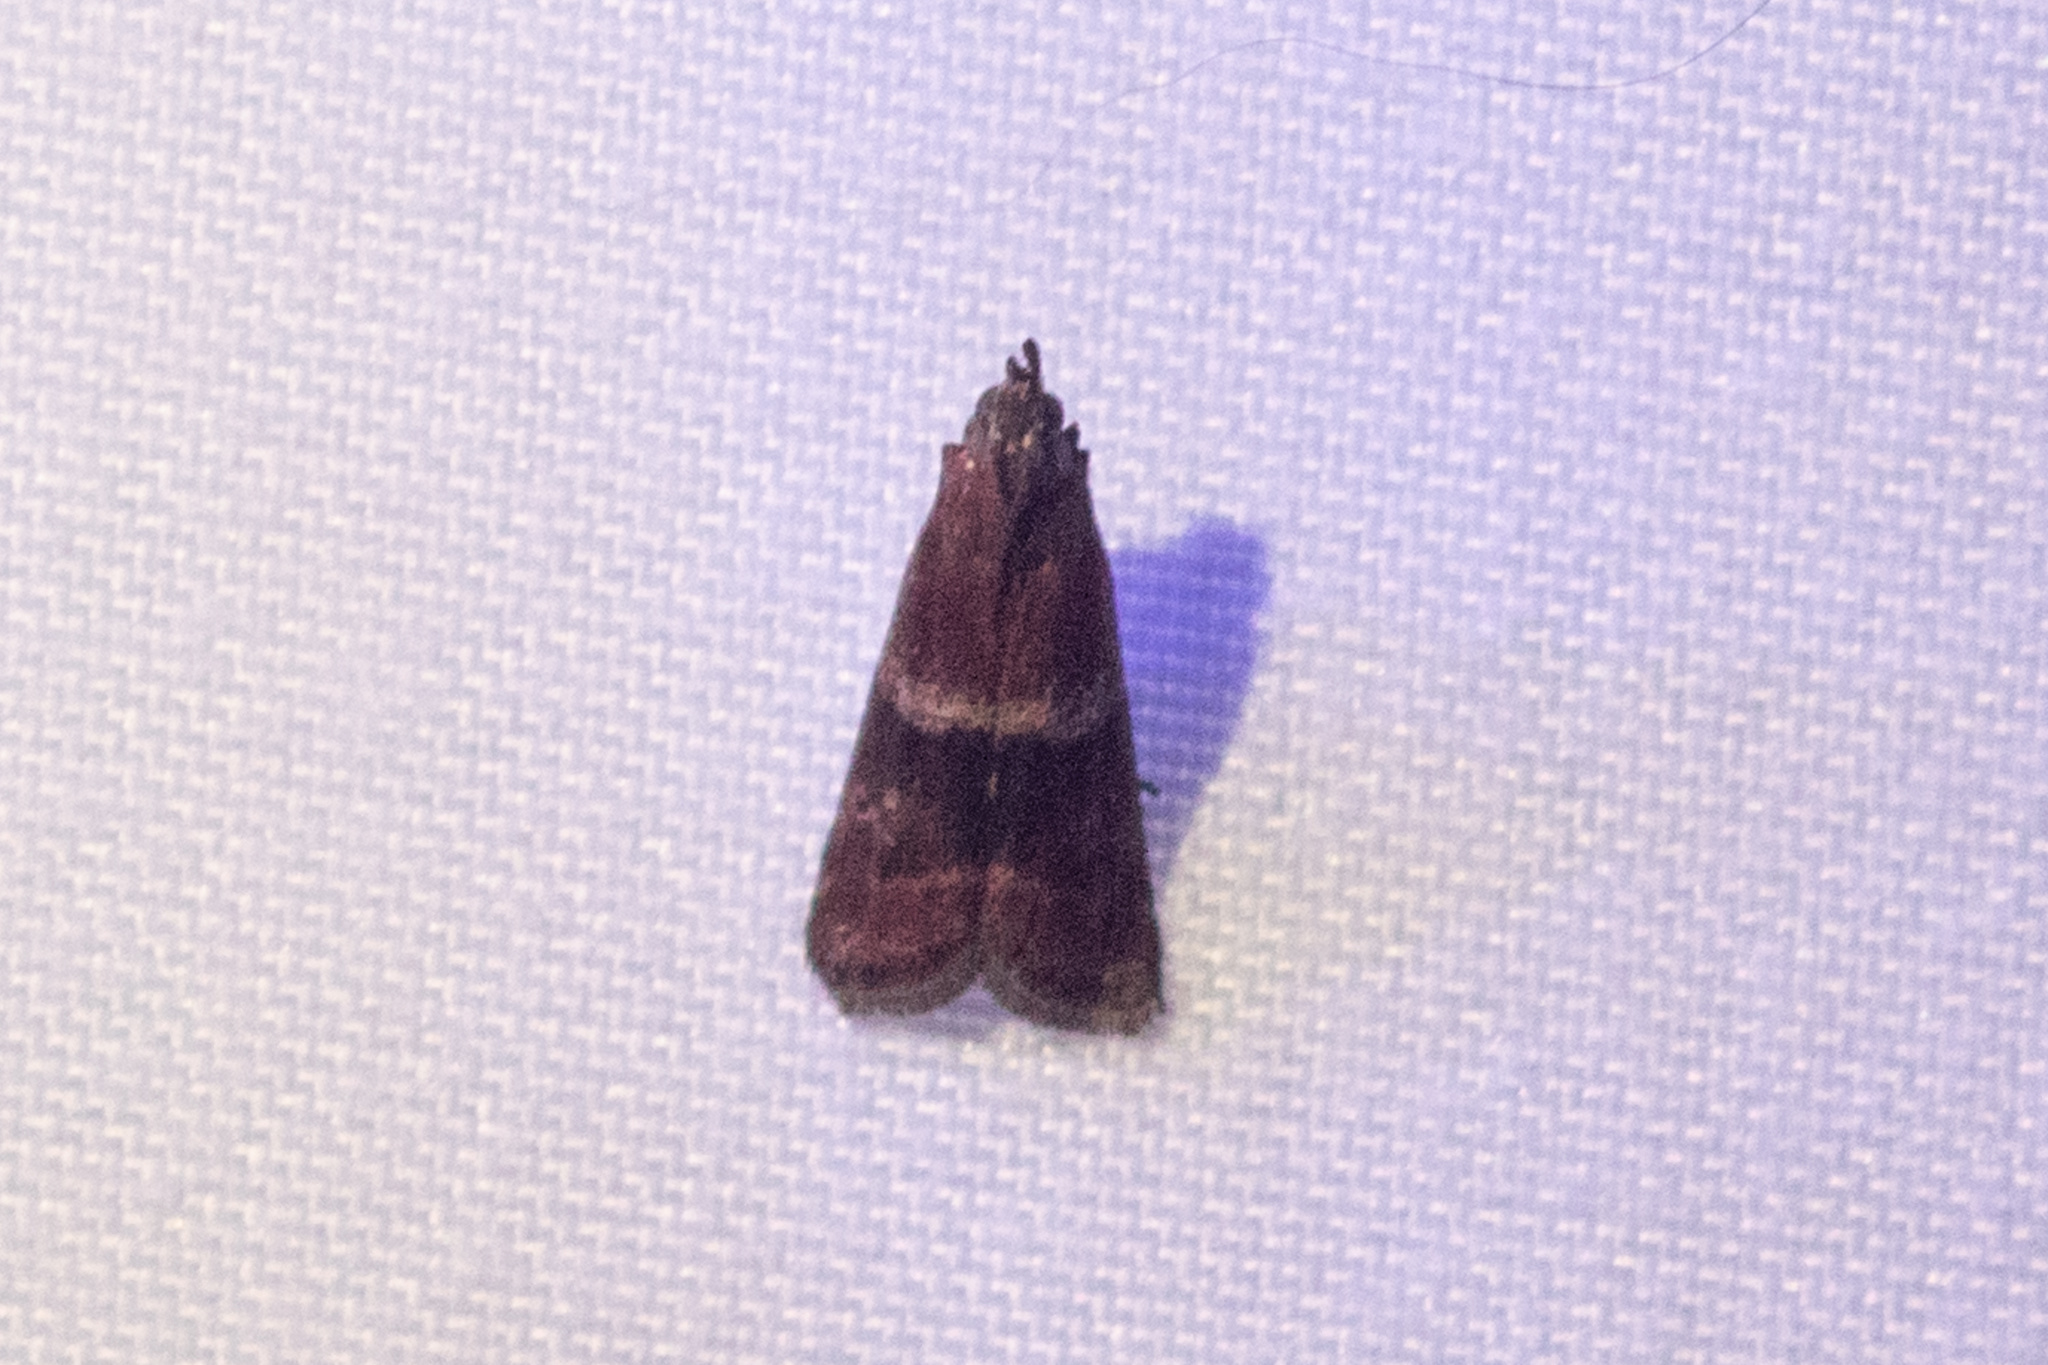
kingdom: Animalia
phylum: Arthropoda
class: Insecta
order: Lepidoptera
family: Pyralidae
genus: Moodna
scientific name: Moodna ostrinella
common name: Darker moodna moth
